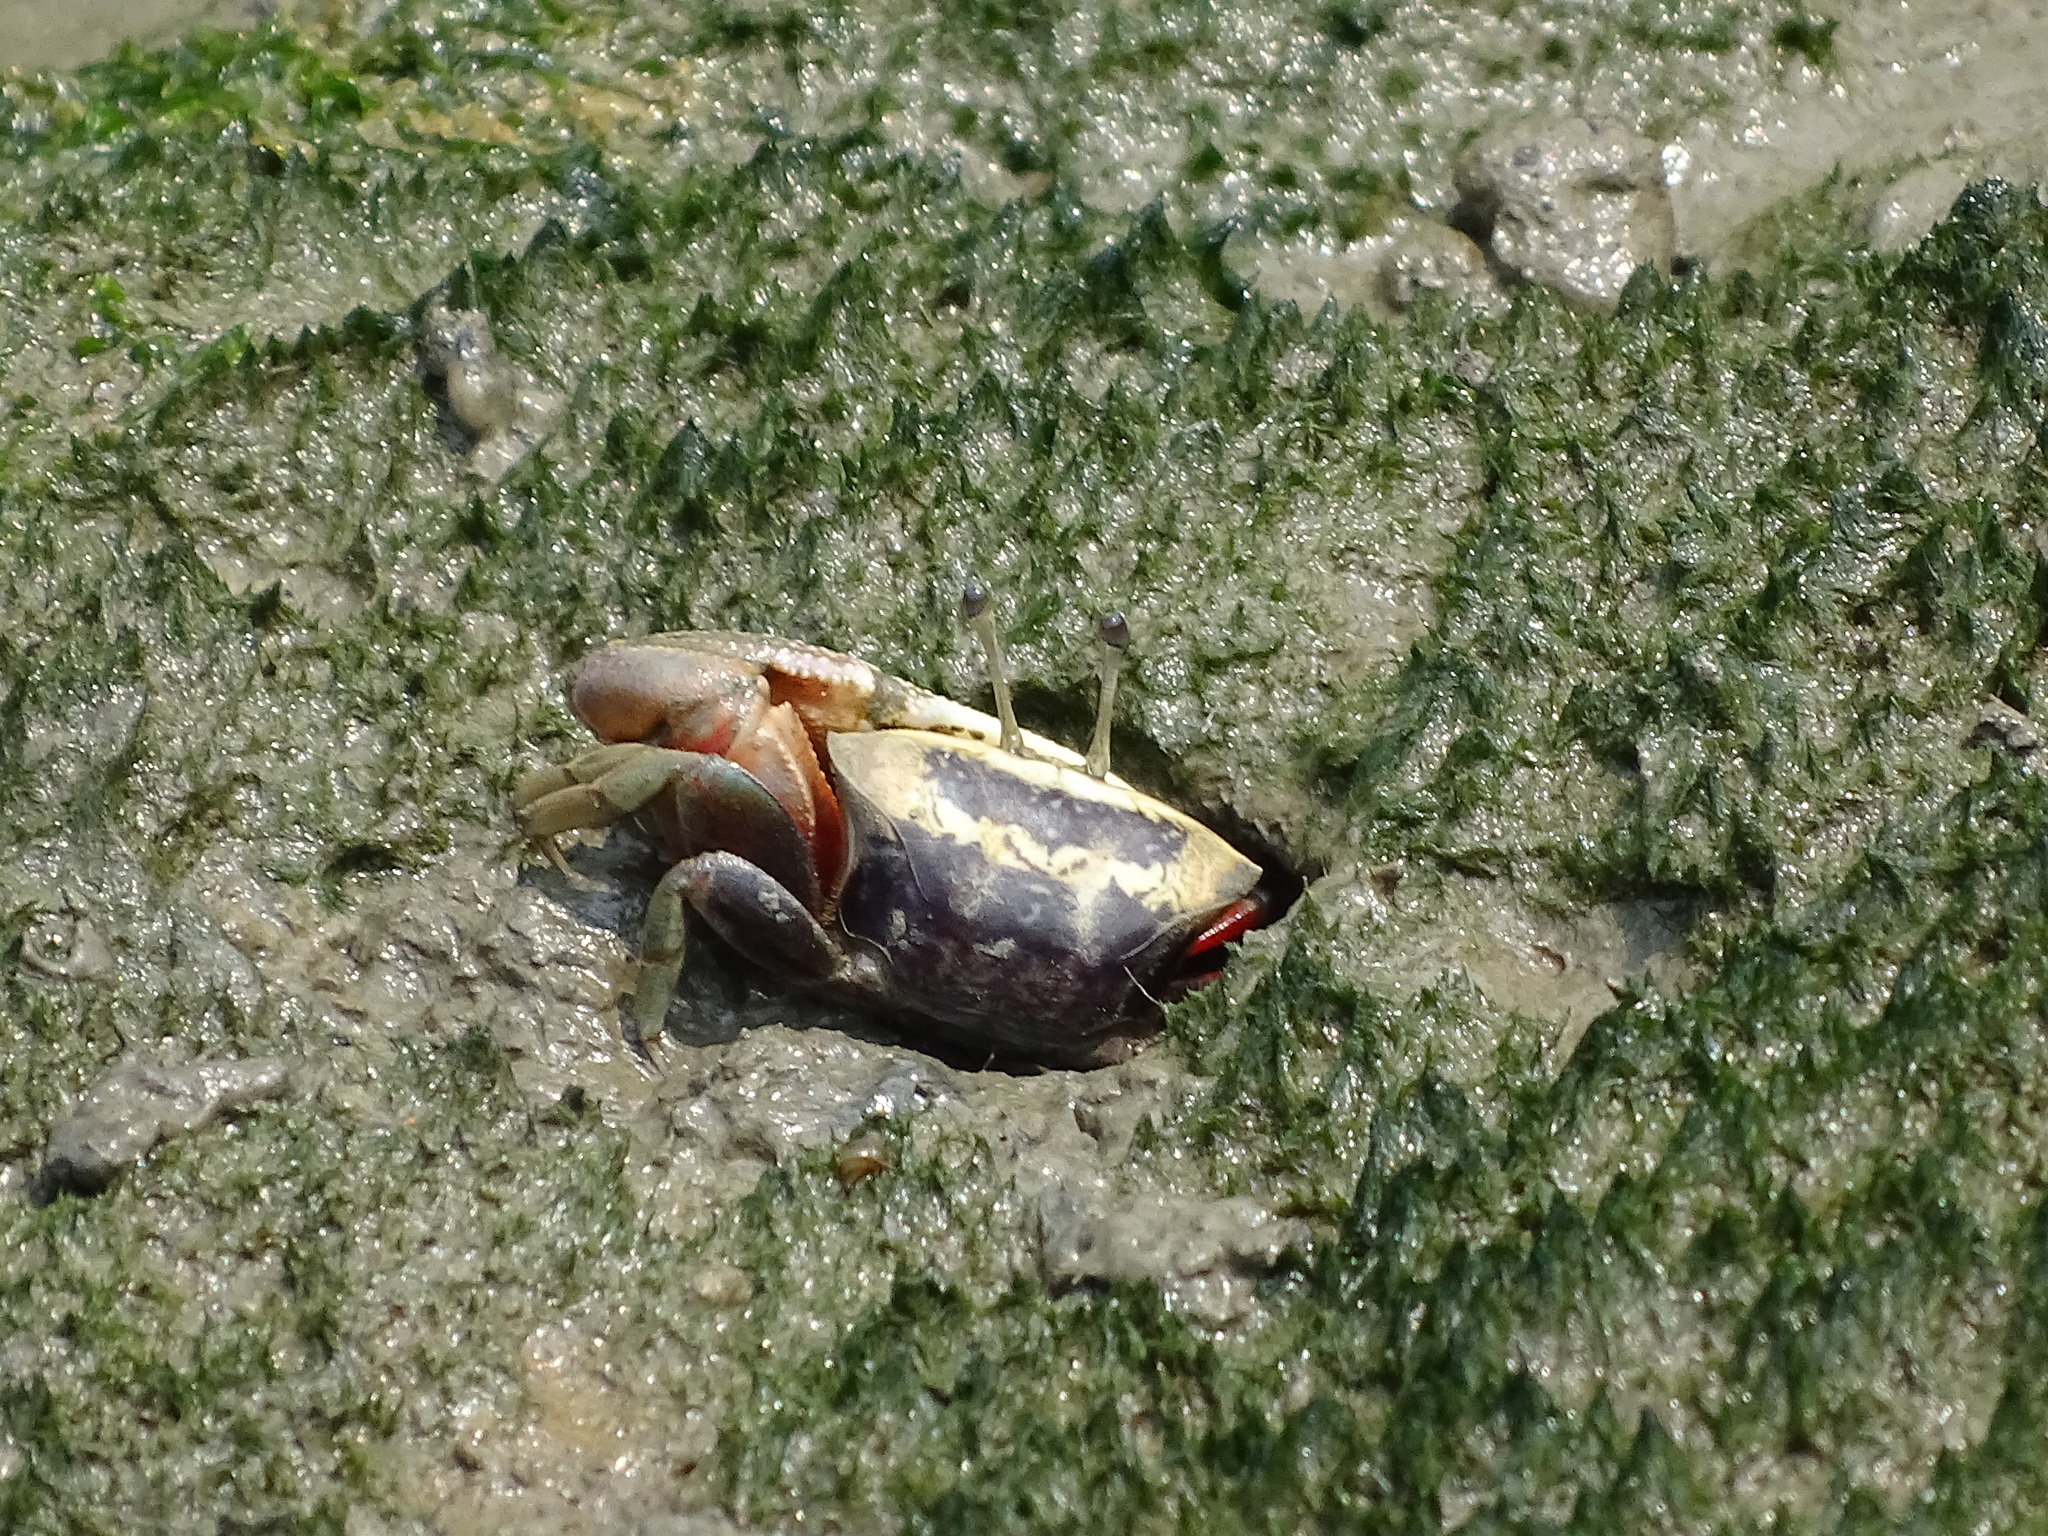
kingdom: Animalia
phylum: Arthropoda
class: Malacostraca
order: Decapoda
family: Ocypodidae
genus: Tubuca
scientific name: Tubuca arcuata
